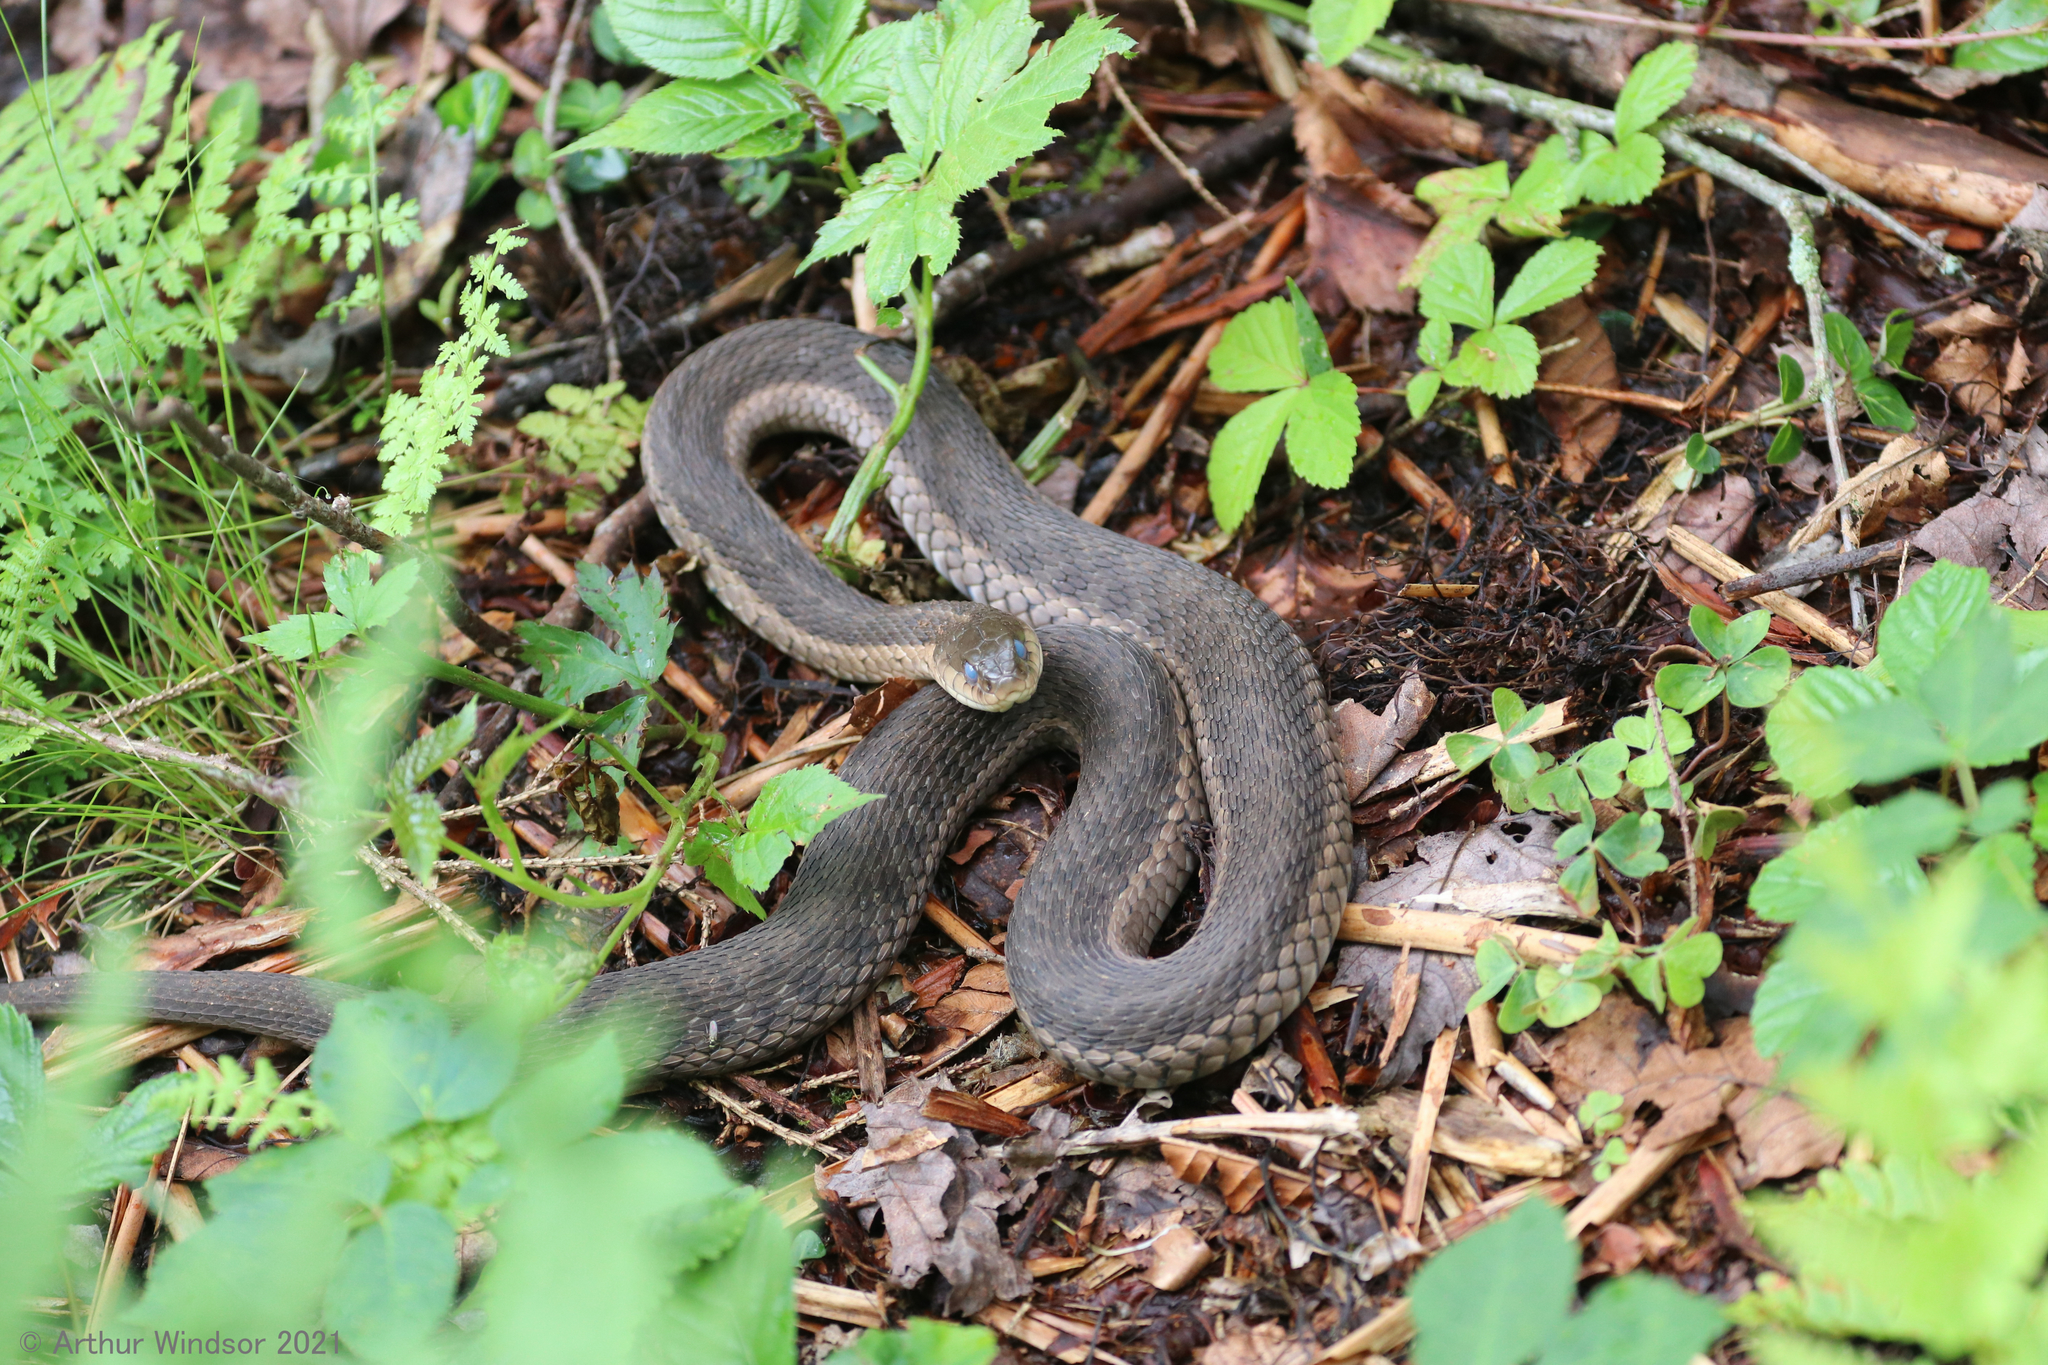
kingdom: Animalia
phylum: Chordata
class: Squamata
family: Colubridae
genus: Thamnophis
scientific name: Thamnophis sirtalis
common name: Common garter snake
